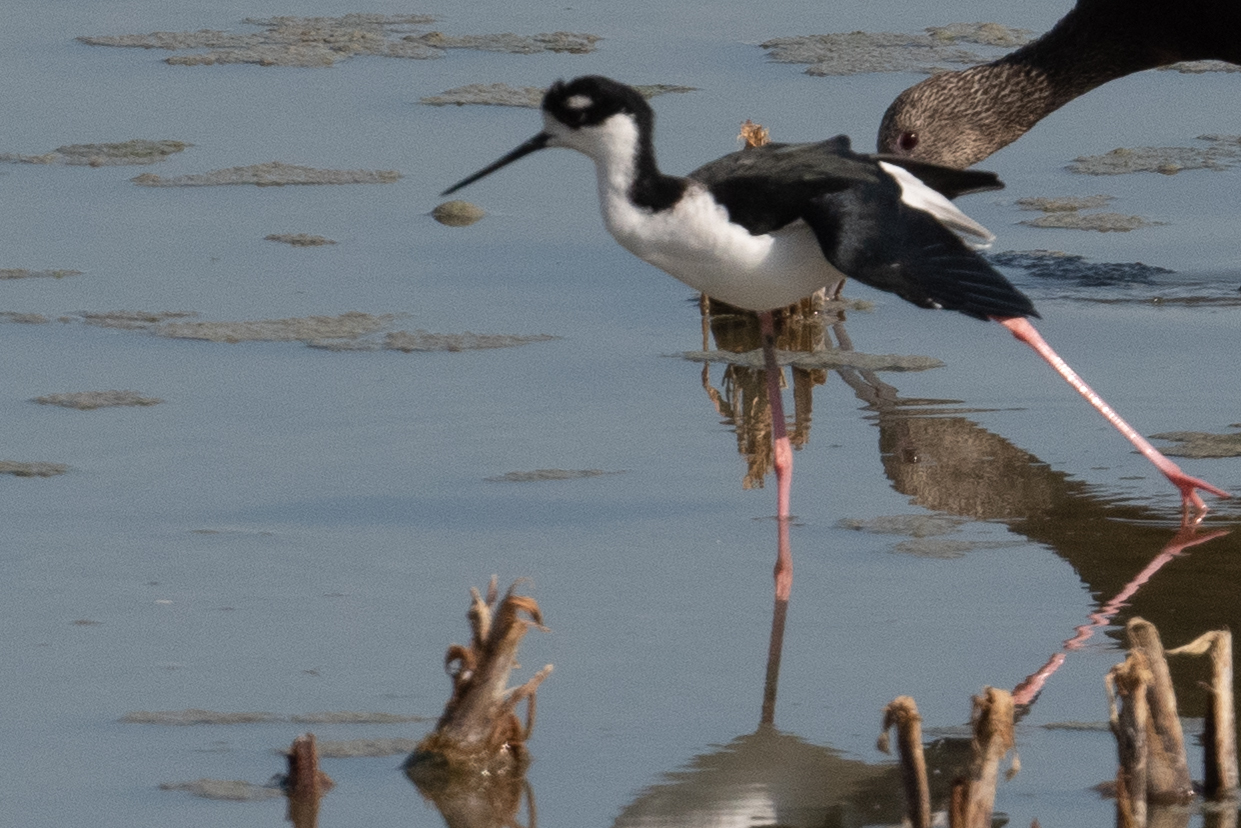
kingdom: Animalia
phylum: Chordata
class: Aves
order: Charadriiformes
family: Recurvirostridae
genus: Himantopus
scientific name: Himantopus mexicanus
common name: Black-necked stilt
